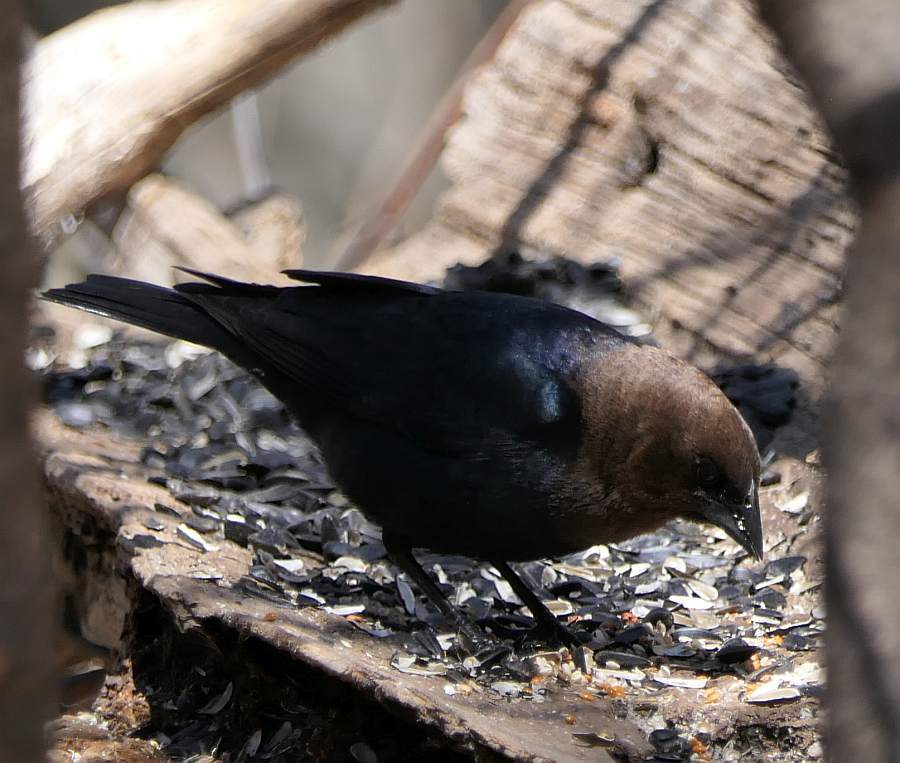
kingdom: Animalia
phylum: Chordata
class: Aves
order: Passeriformes
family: Icteridae
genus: Molothrus
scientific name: Molothrus ater
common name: Brown-headed cowbird
